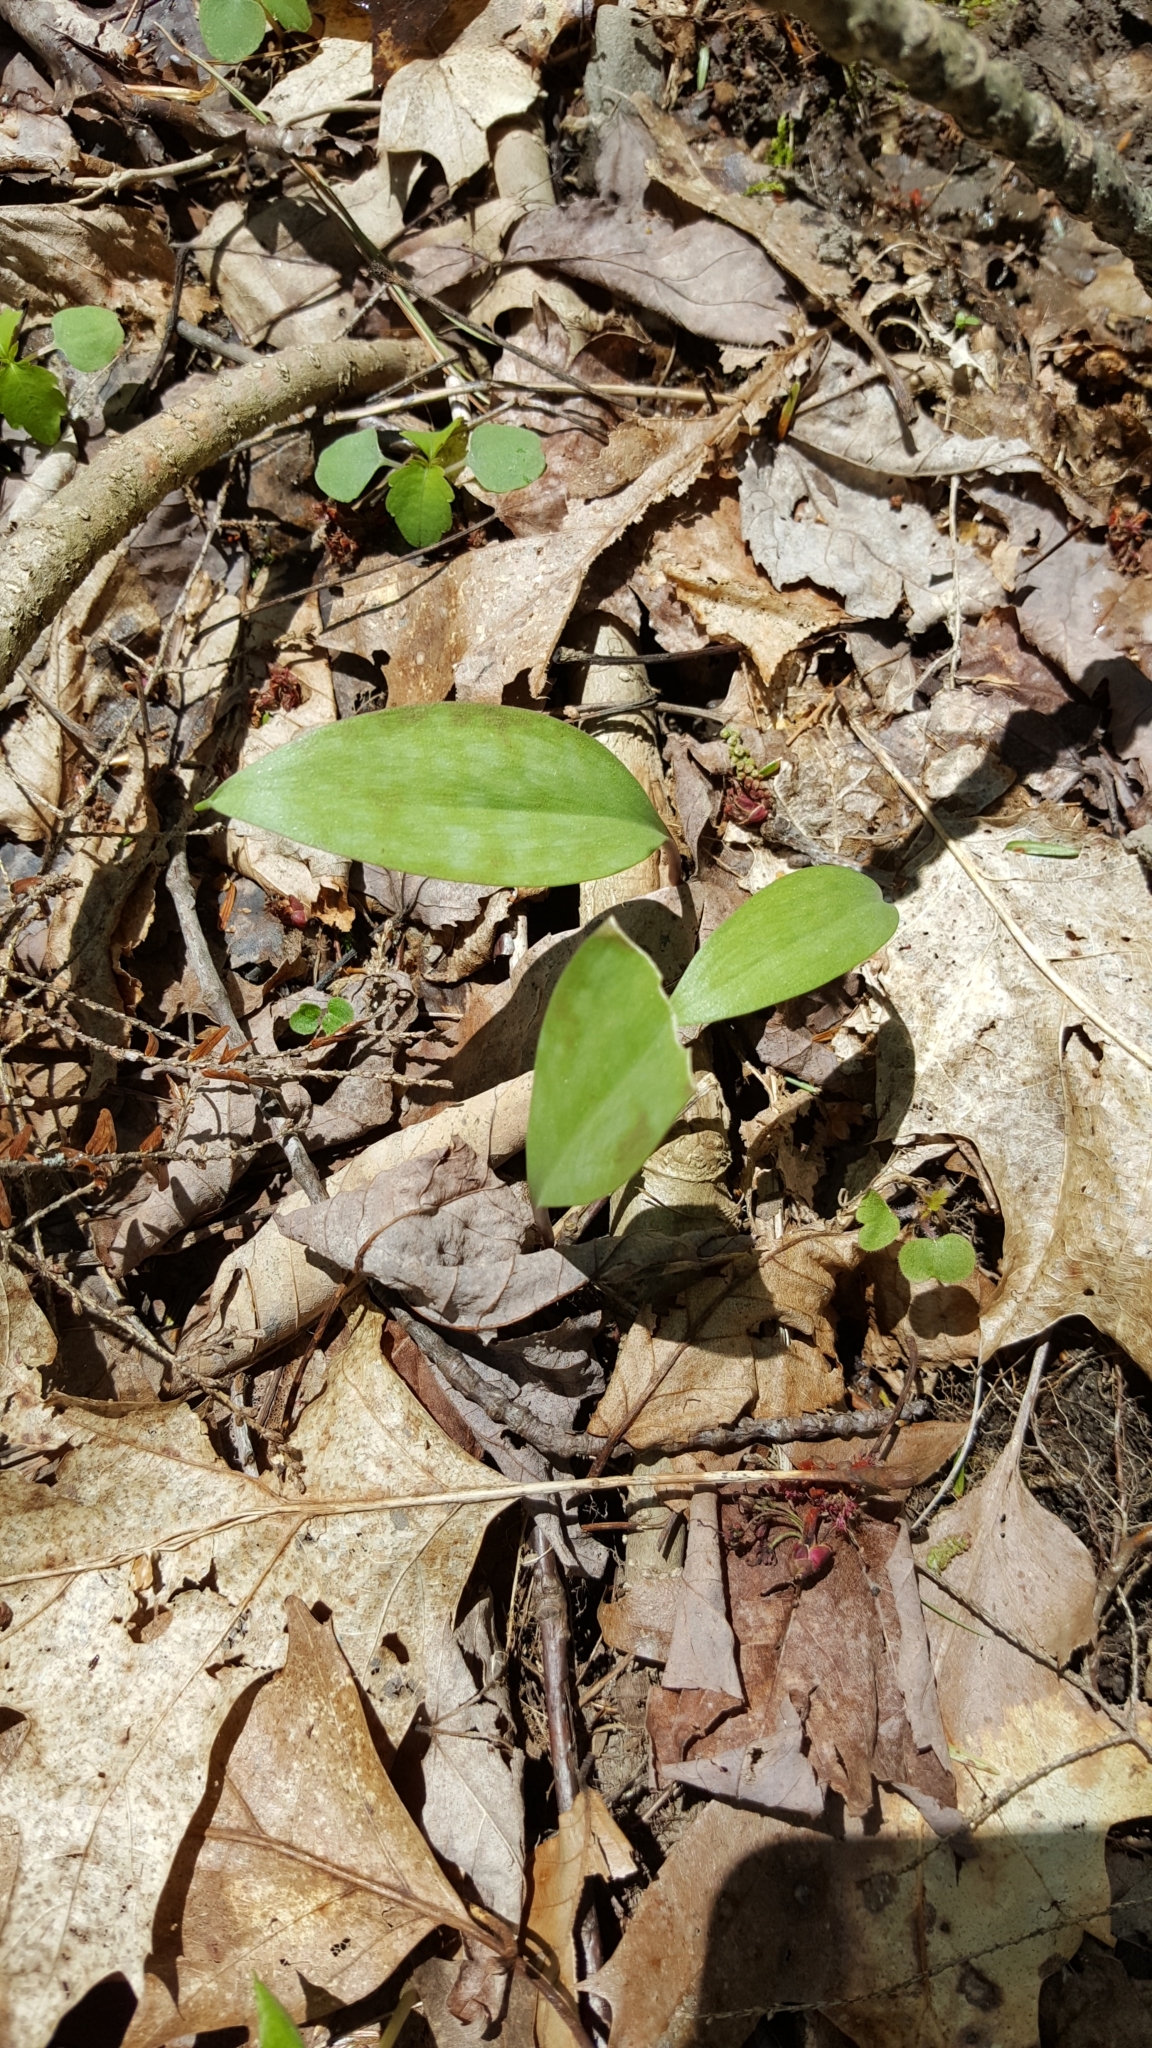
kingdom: Plantae
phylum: Tracheophyta
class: Liliopsida
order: Liliales
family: Liliaceae
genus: Erythronium
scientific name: Erythronium americanum
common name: Yellow adder's-tongue
